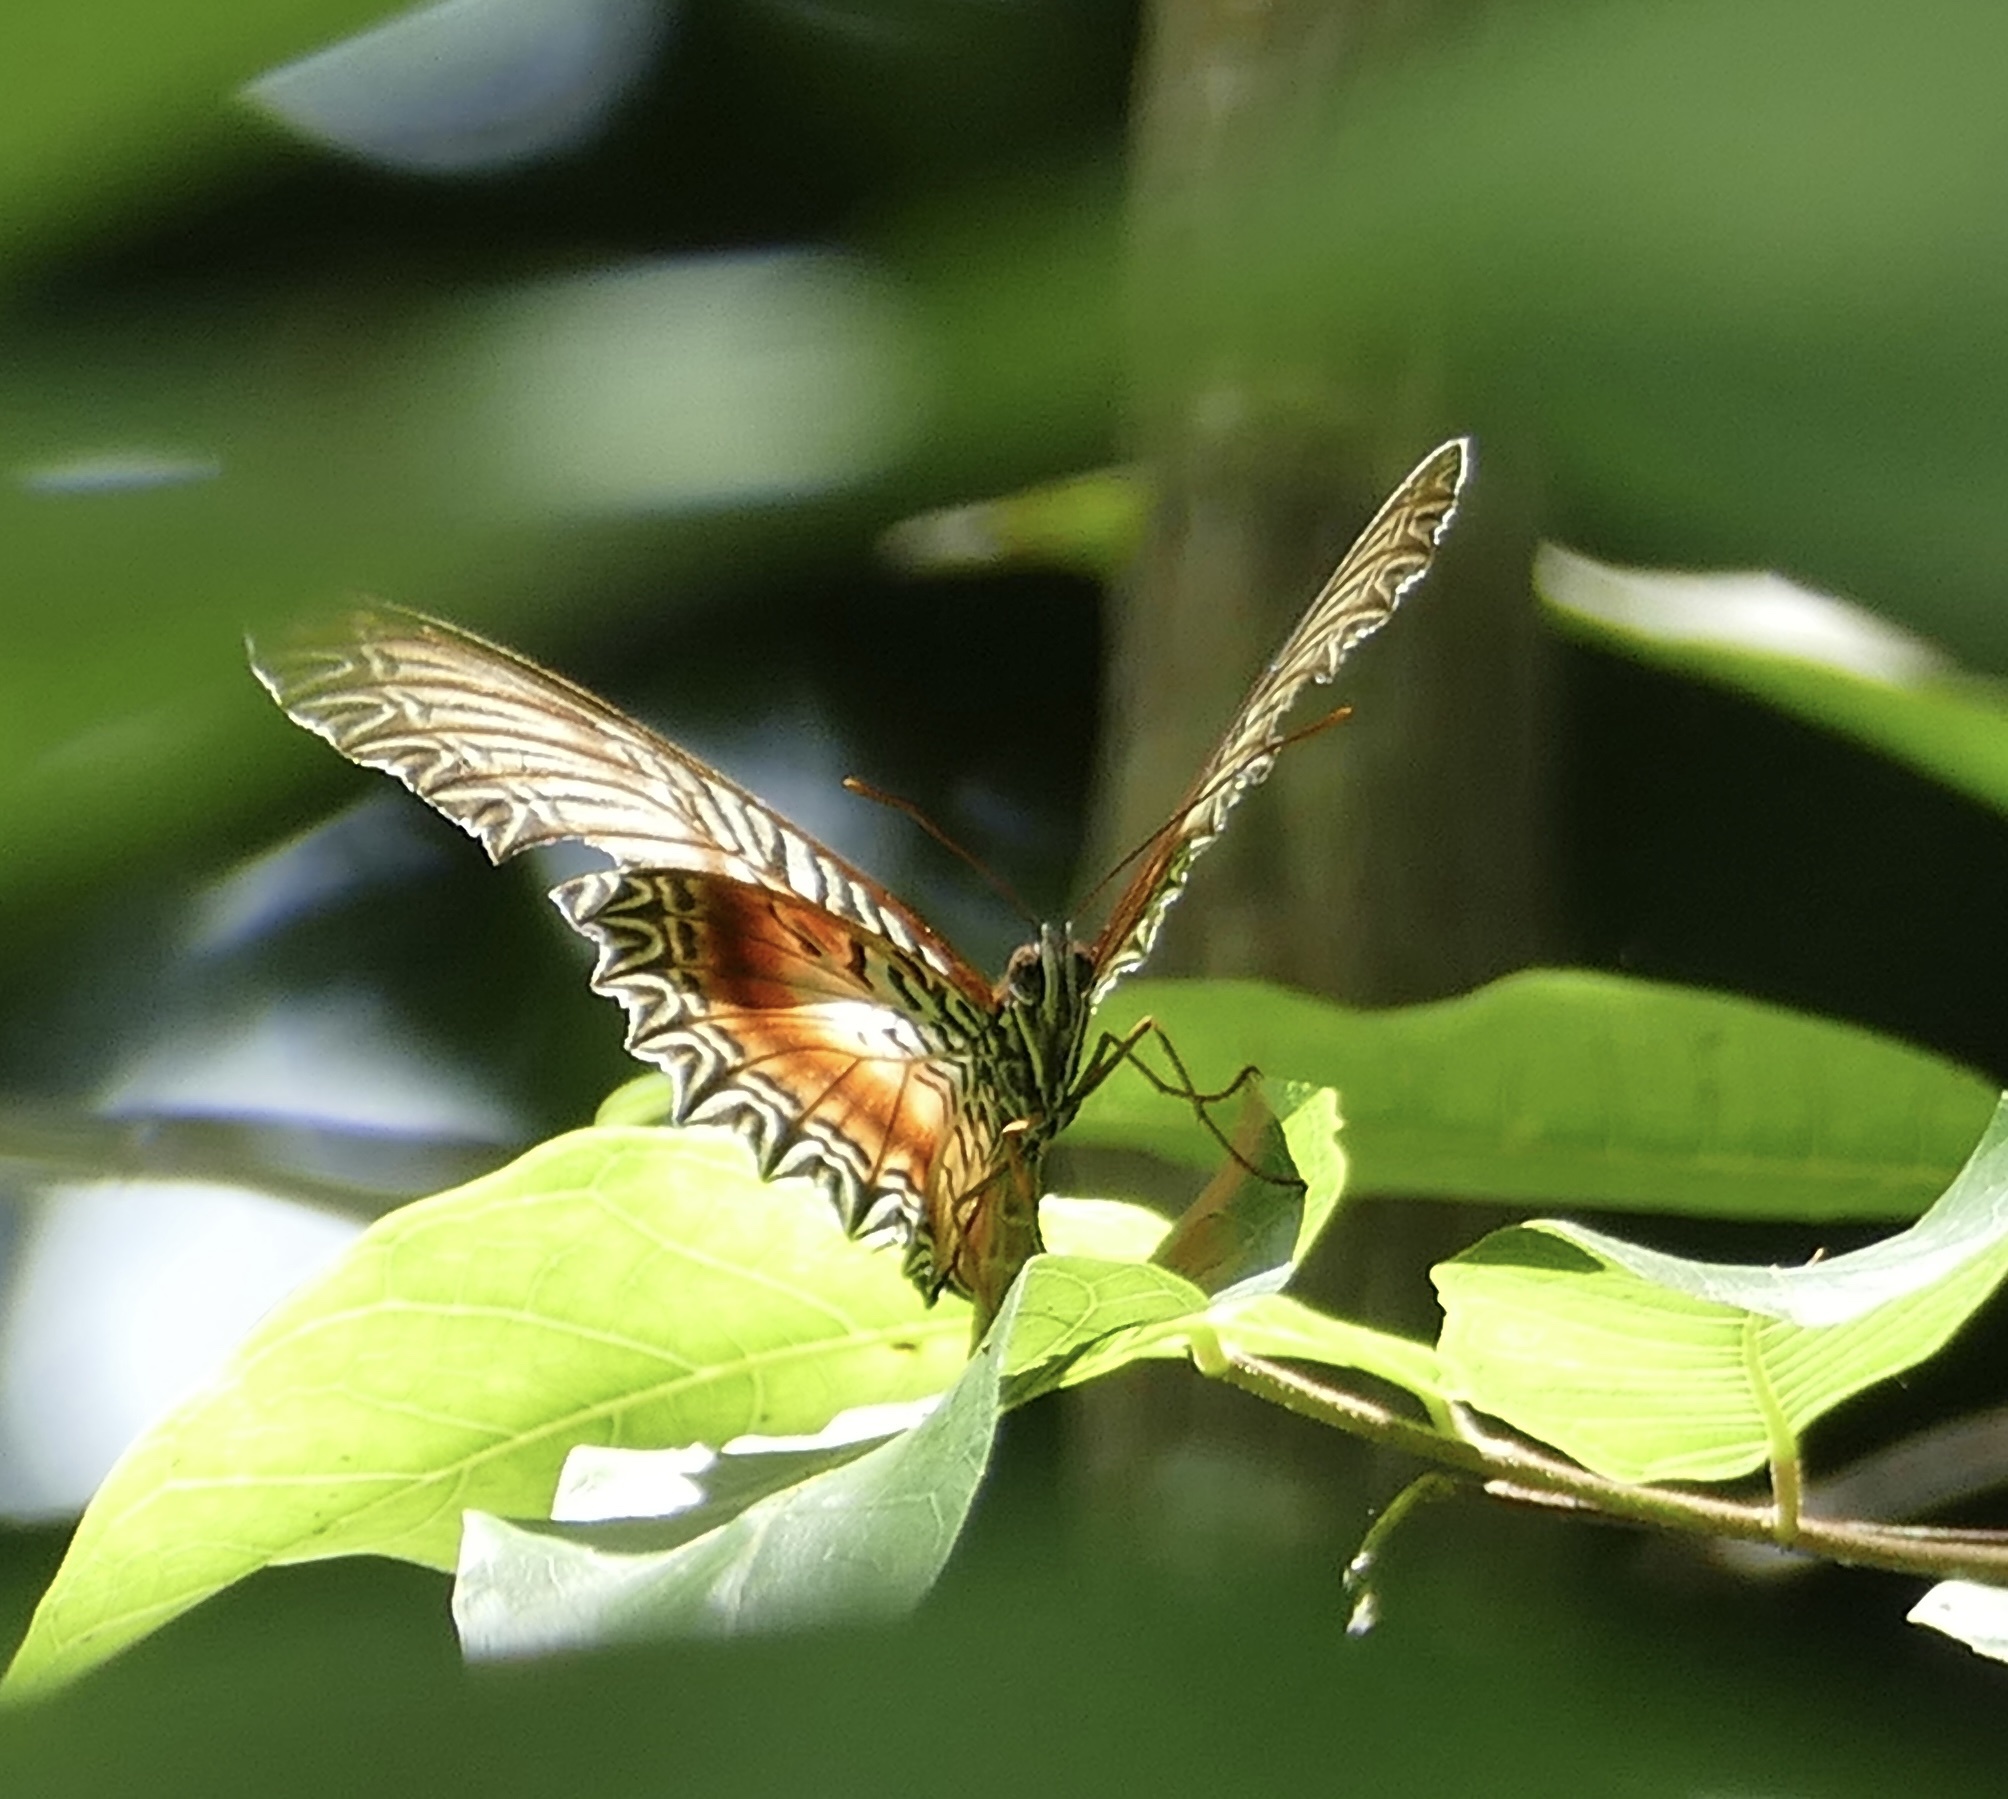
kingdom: Animalia
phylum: Arthropoda
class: Insecta
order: Lepidoptera
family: Nymphalidae
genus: Cethosia
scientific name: Cethosia myrina
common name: Violet lacewing
